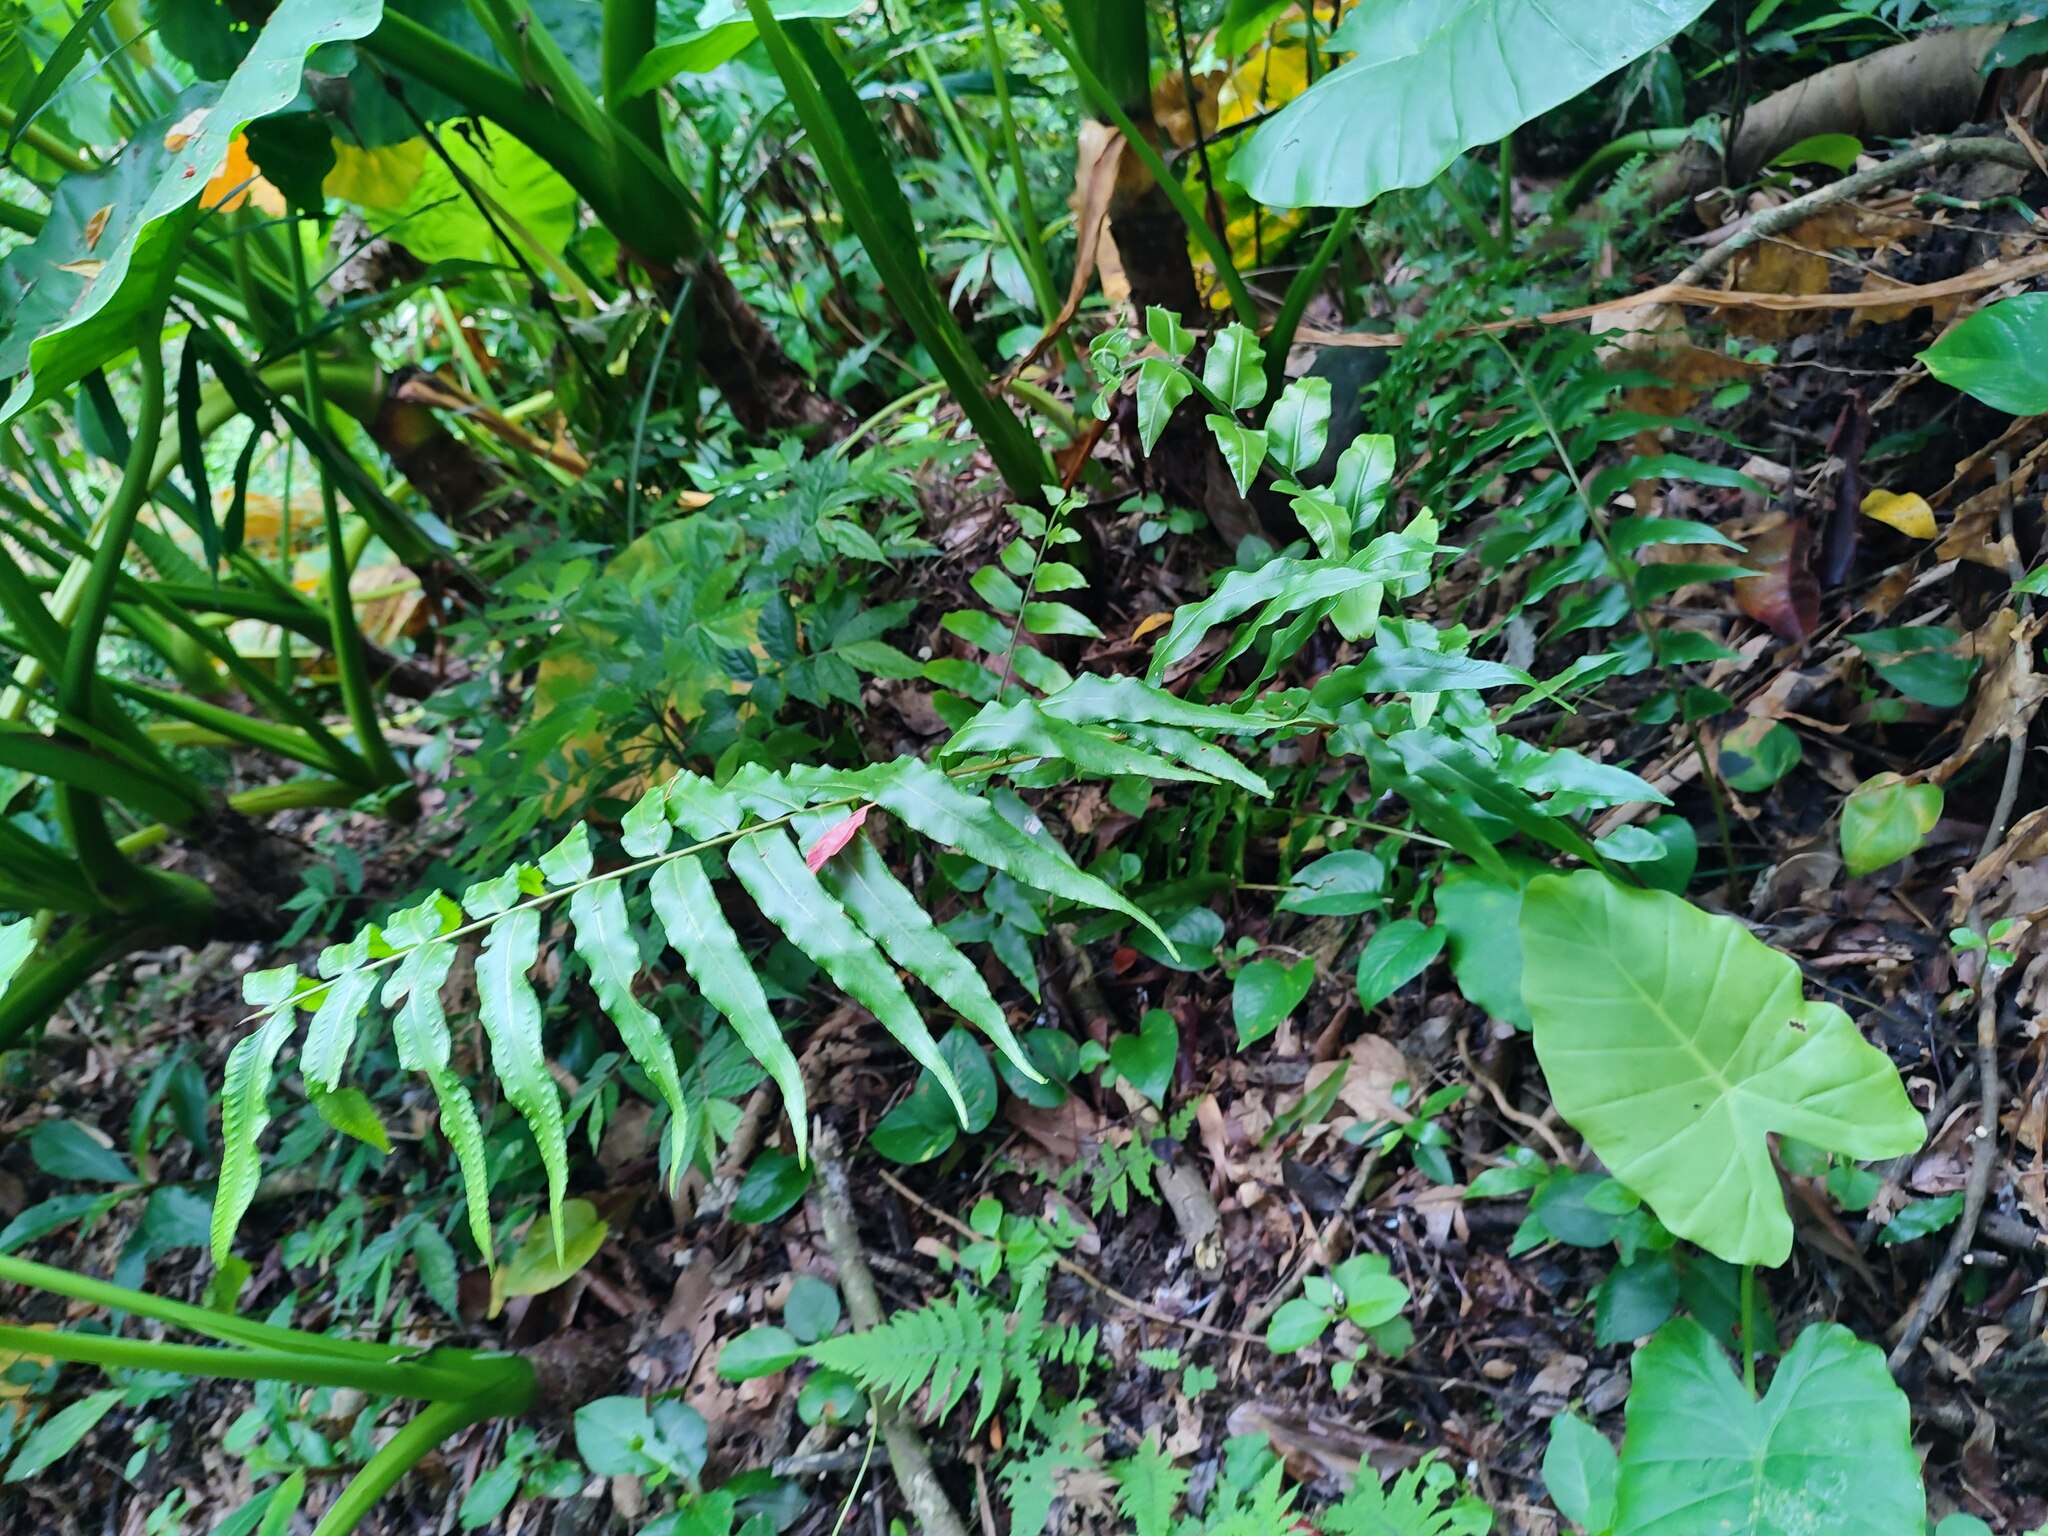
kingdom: Plantae
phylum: Tracheophyta
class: Polypodiopsida
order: Polypodiales
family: Nephrolepidaceae
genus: Nephrolepis
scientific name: Nephrolepis biserrata
